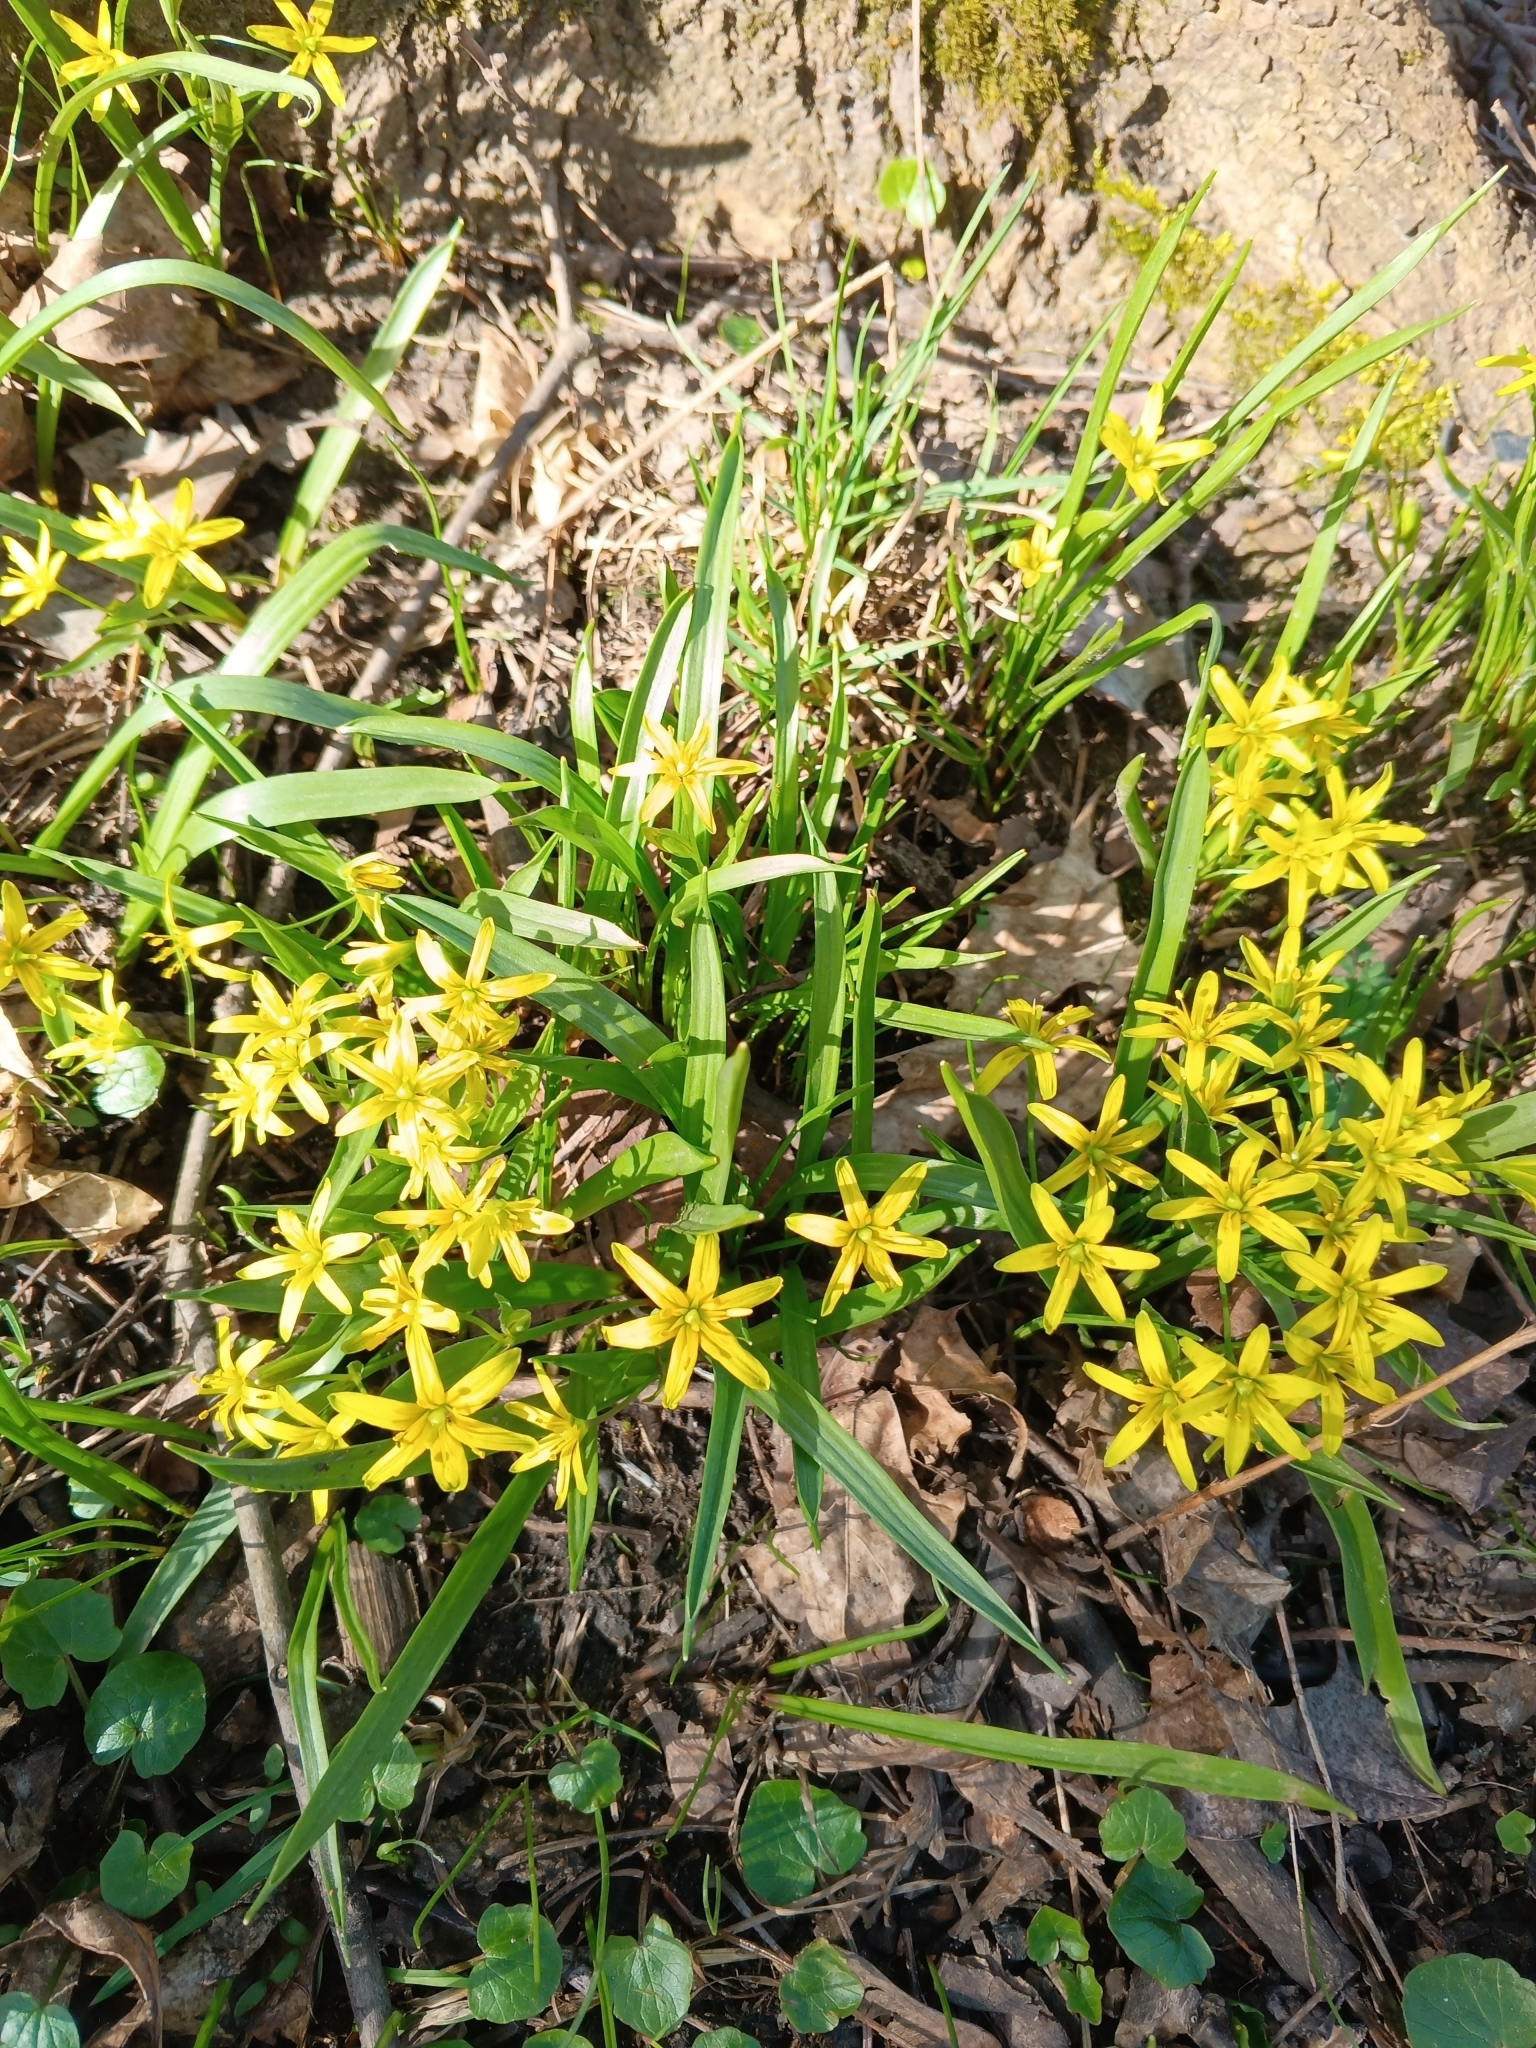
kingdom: Plantae
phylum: Tracheophyta
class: Liliopsida
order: Liliales
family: Liliaceae
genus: Gagea
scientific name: Gagea lutea
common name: Yellow star-of-bethlehem
